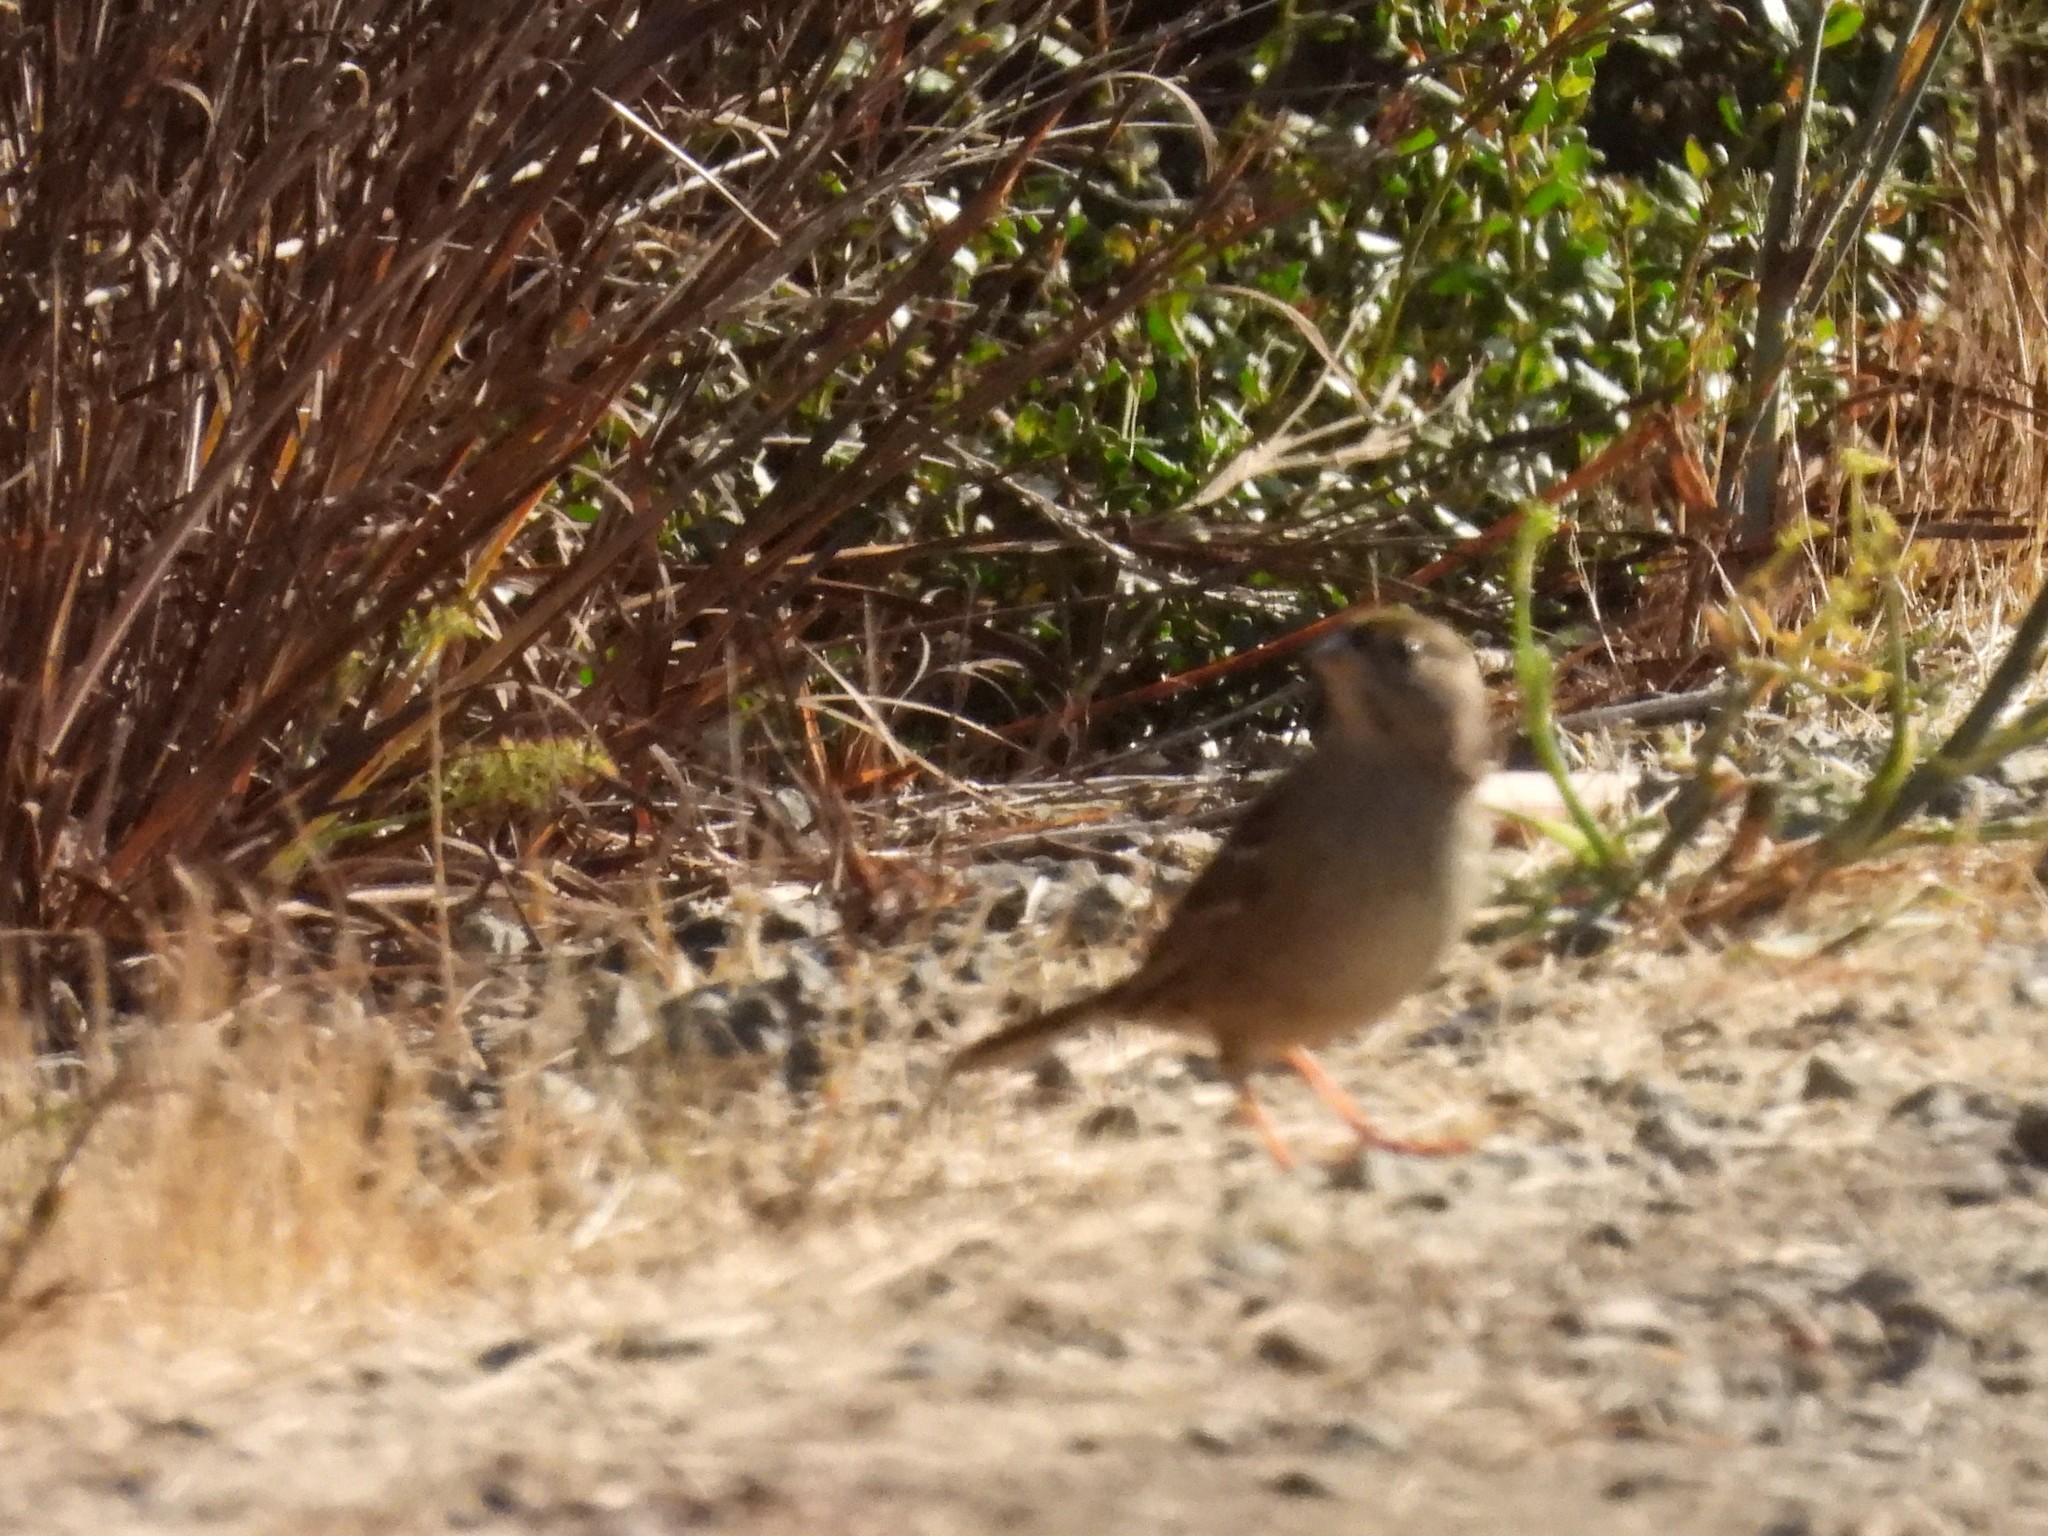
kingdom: Animalia
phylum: Chordata
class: Aves
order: Passeriformes
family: Passerellidae
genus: Zonotrichia
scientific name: Zonotrichia atricapilla
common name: Golden-crowned sparrow
